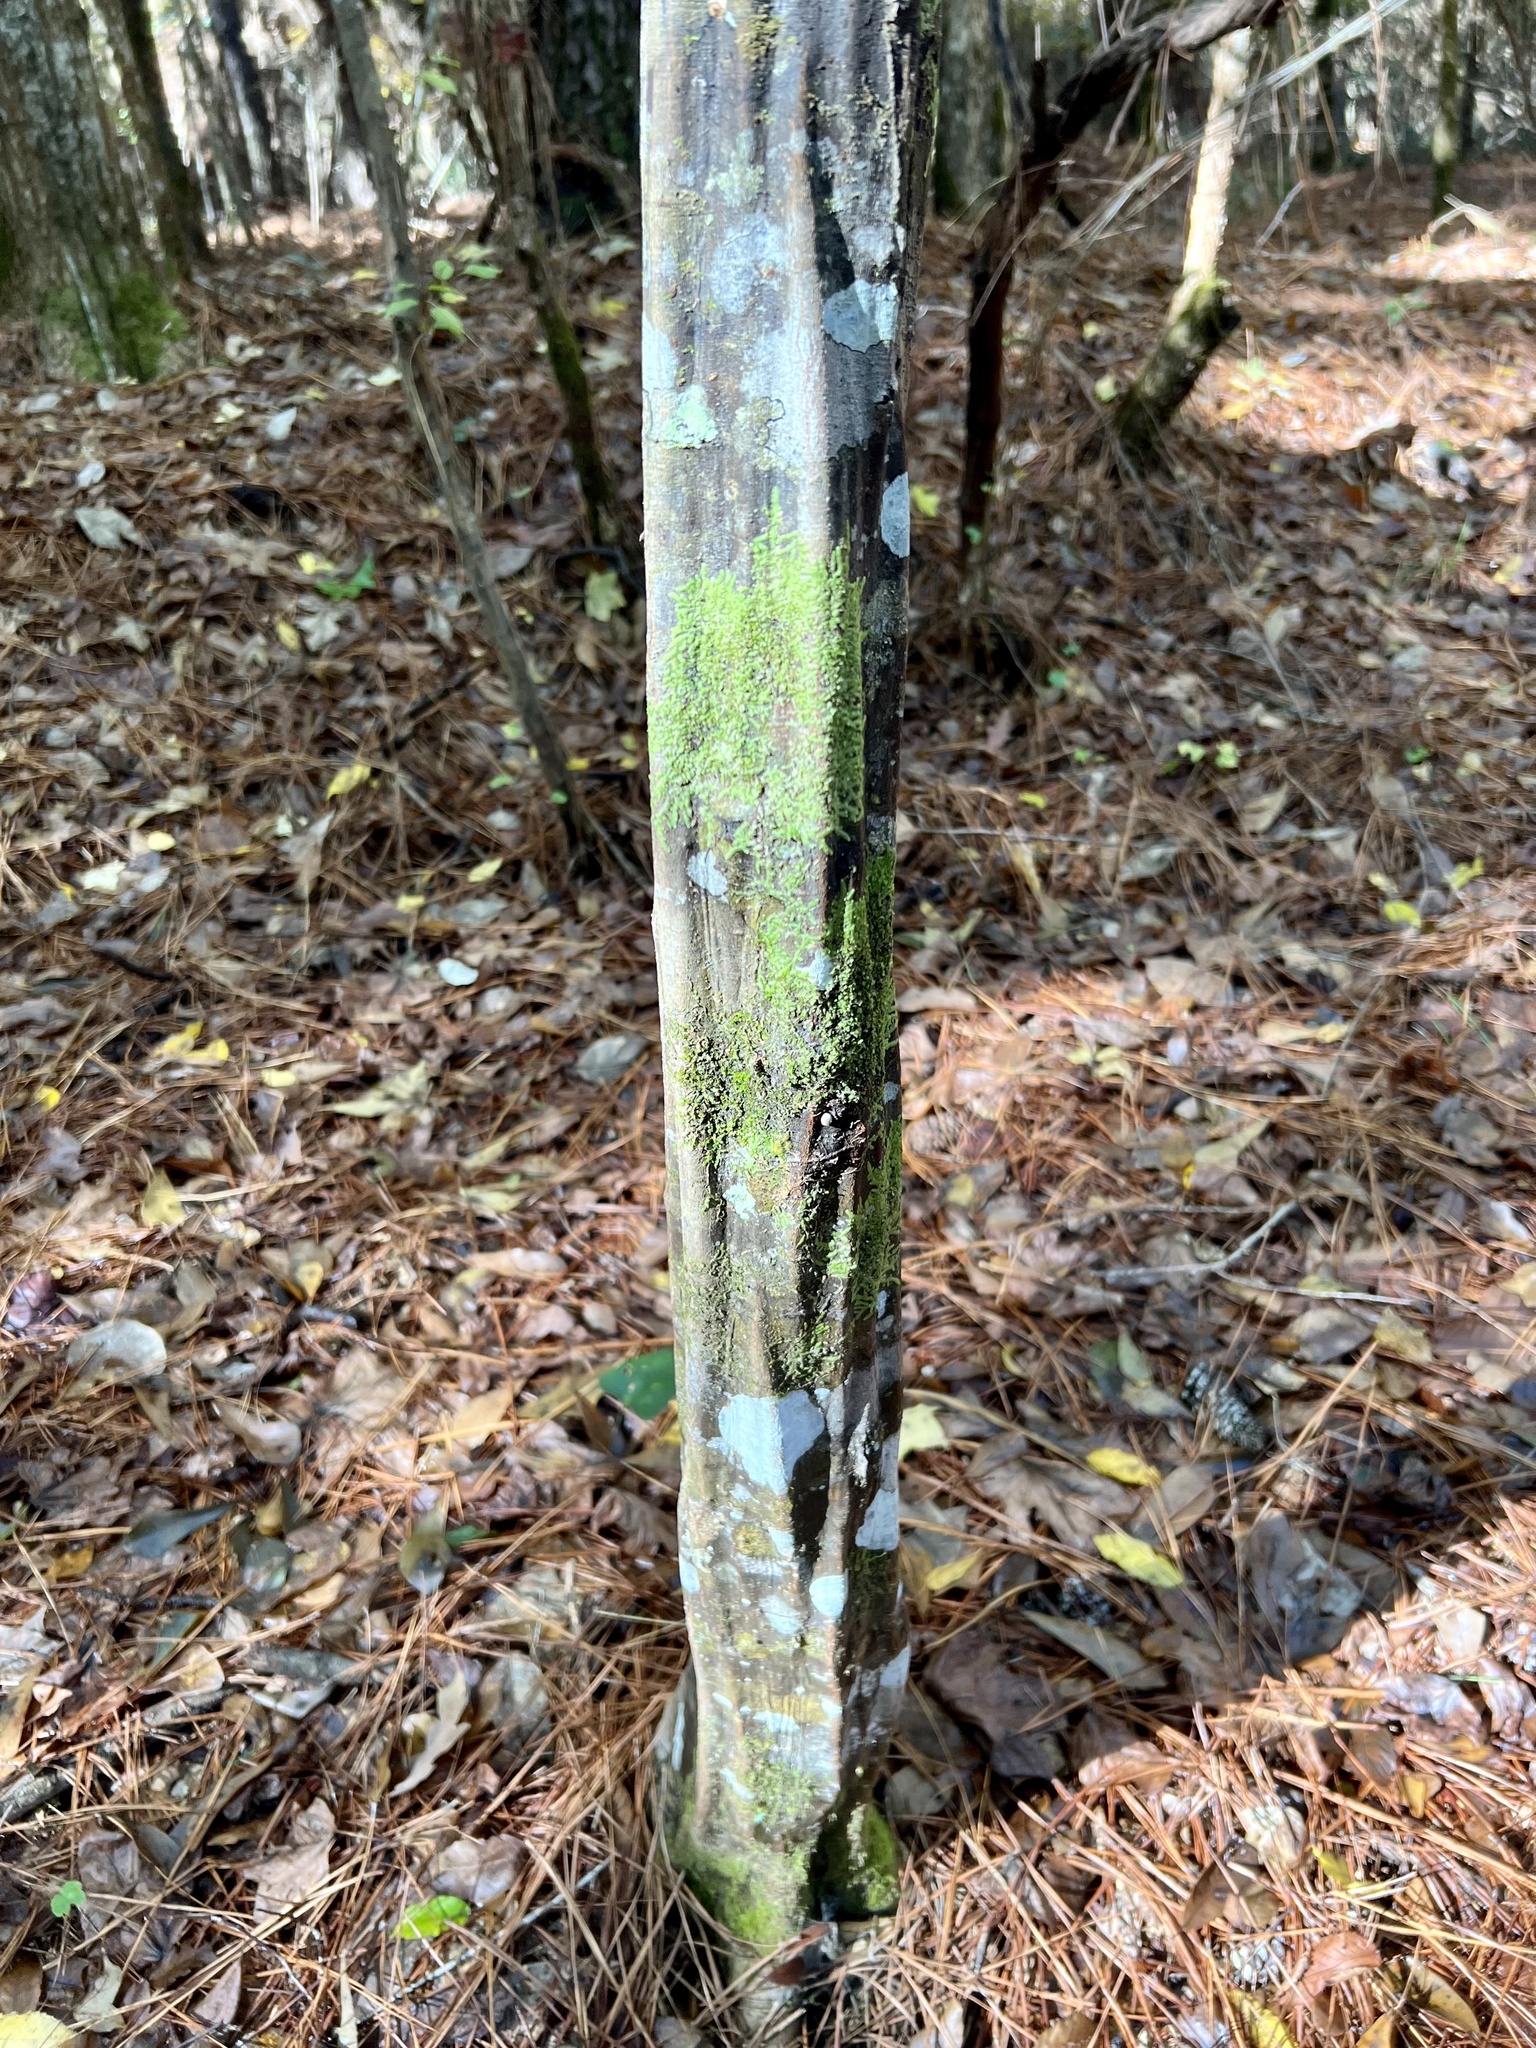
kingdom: Plantae
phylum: Tracheophyta
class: Magnoliopsida
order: Fagales
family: Betulaceae
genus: Carpinus
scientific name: Carpinus caroliniana
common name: American hornbeam
